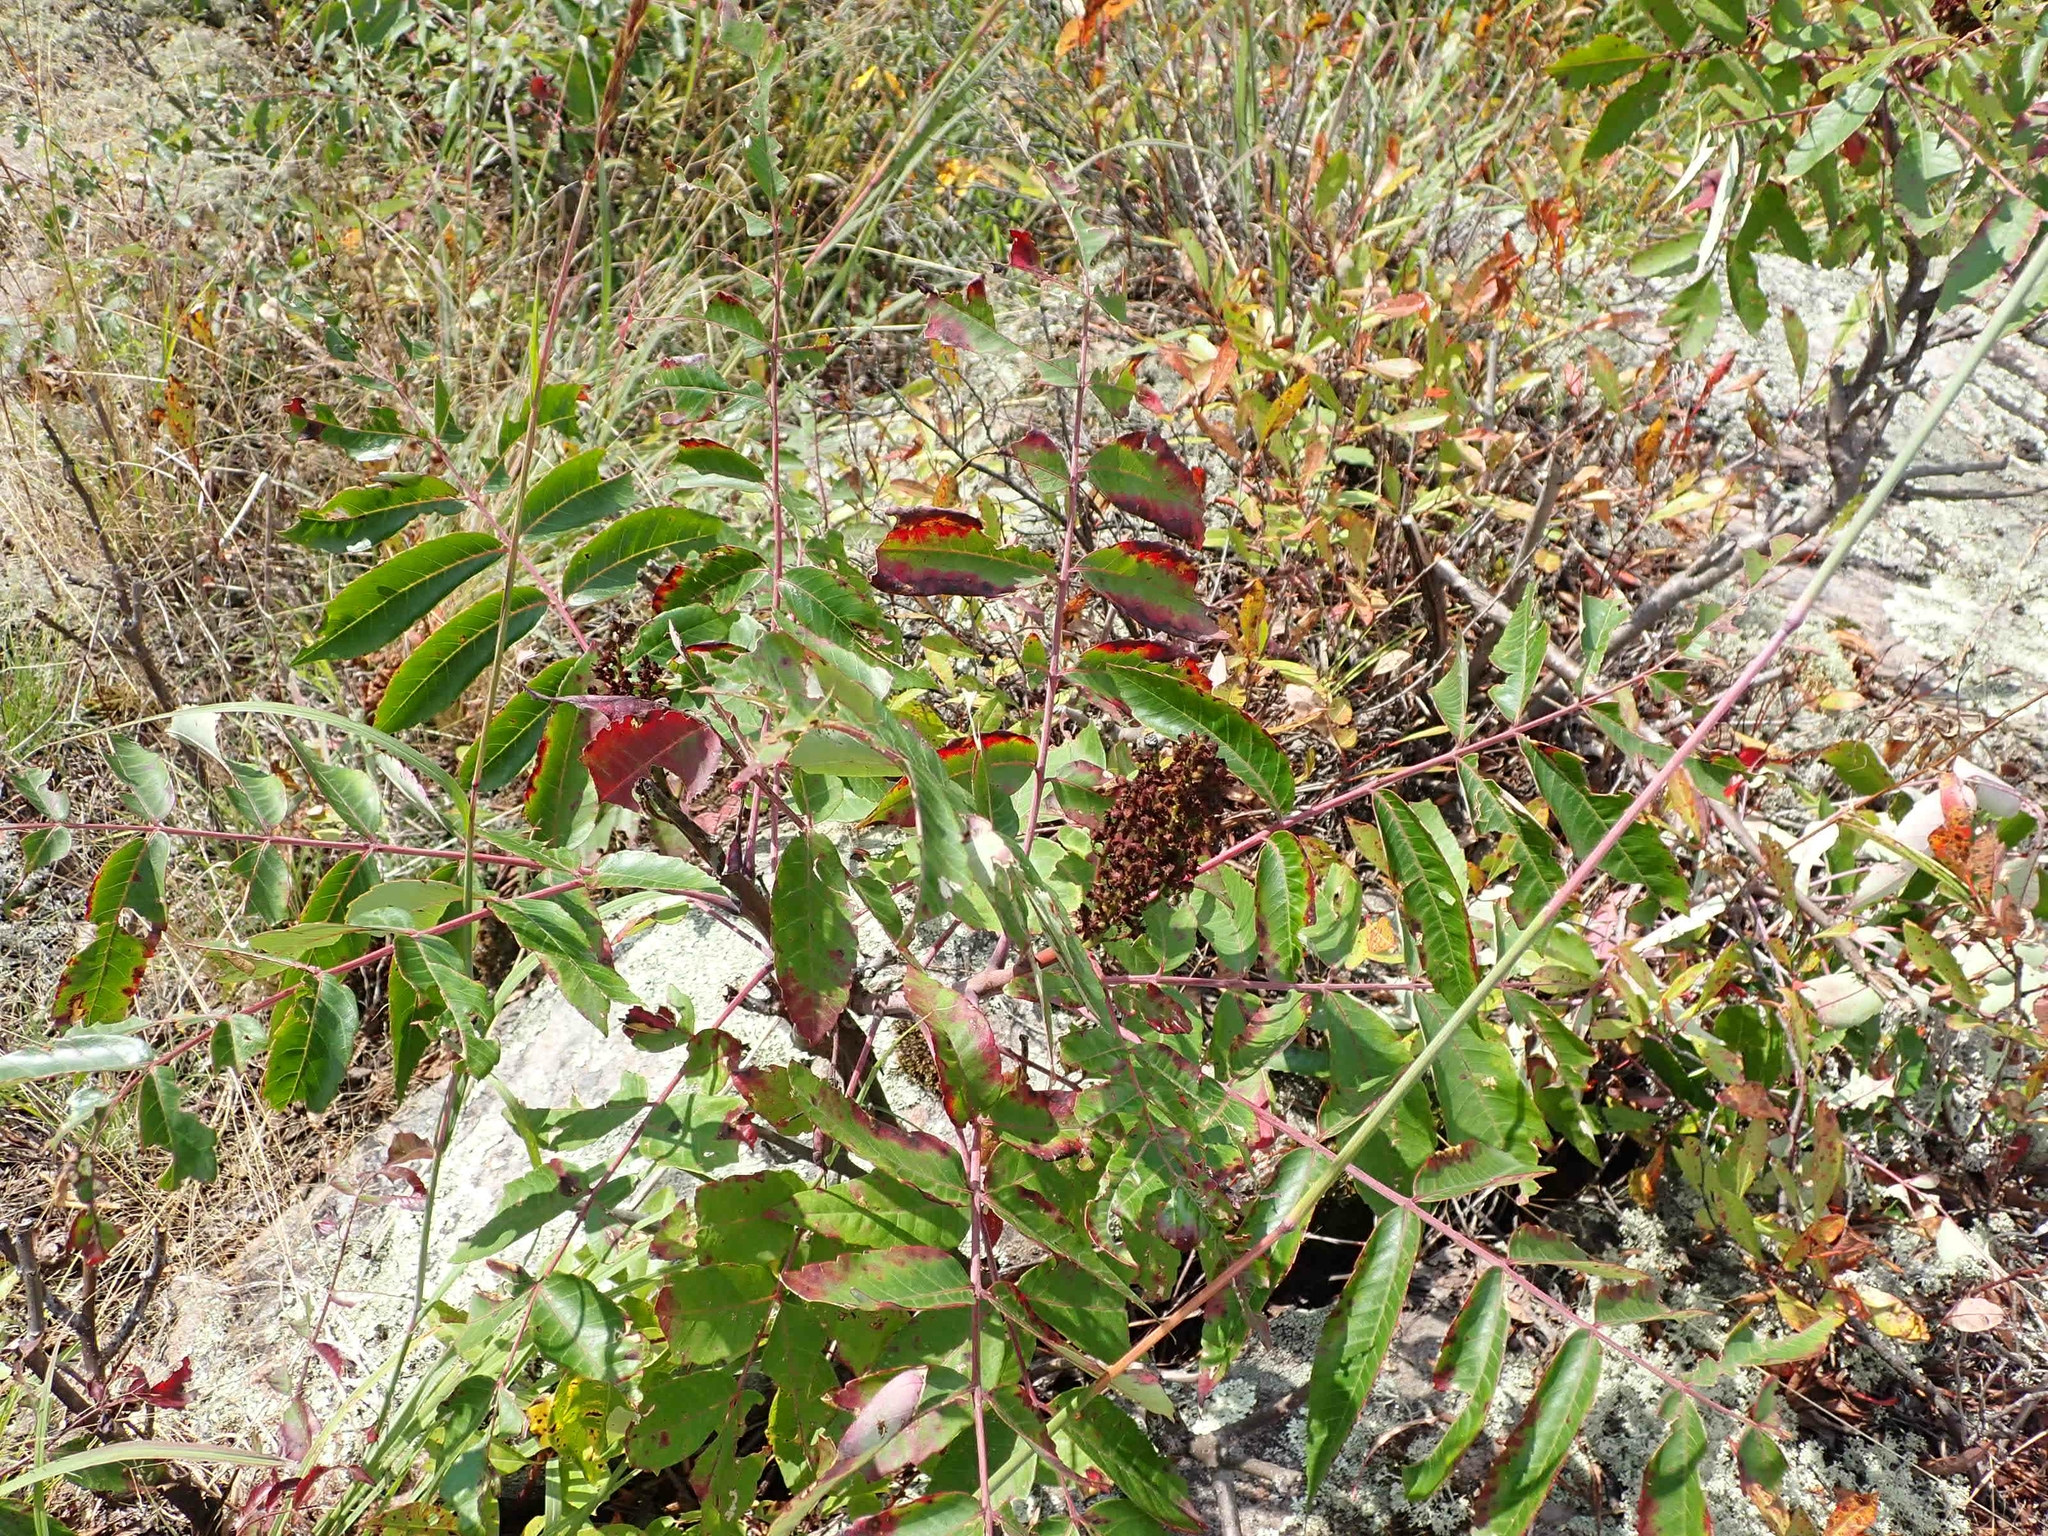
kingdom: Plantae
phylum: Tracheophyta
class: Magnoliopsida
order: Sapindales
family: Anacardiaceae
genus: Rhus
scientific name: Rhus glabra
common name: Scarlet sumac
